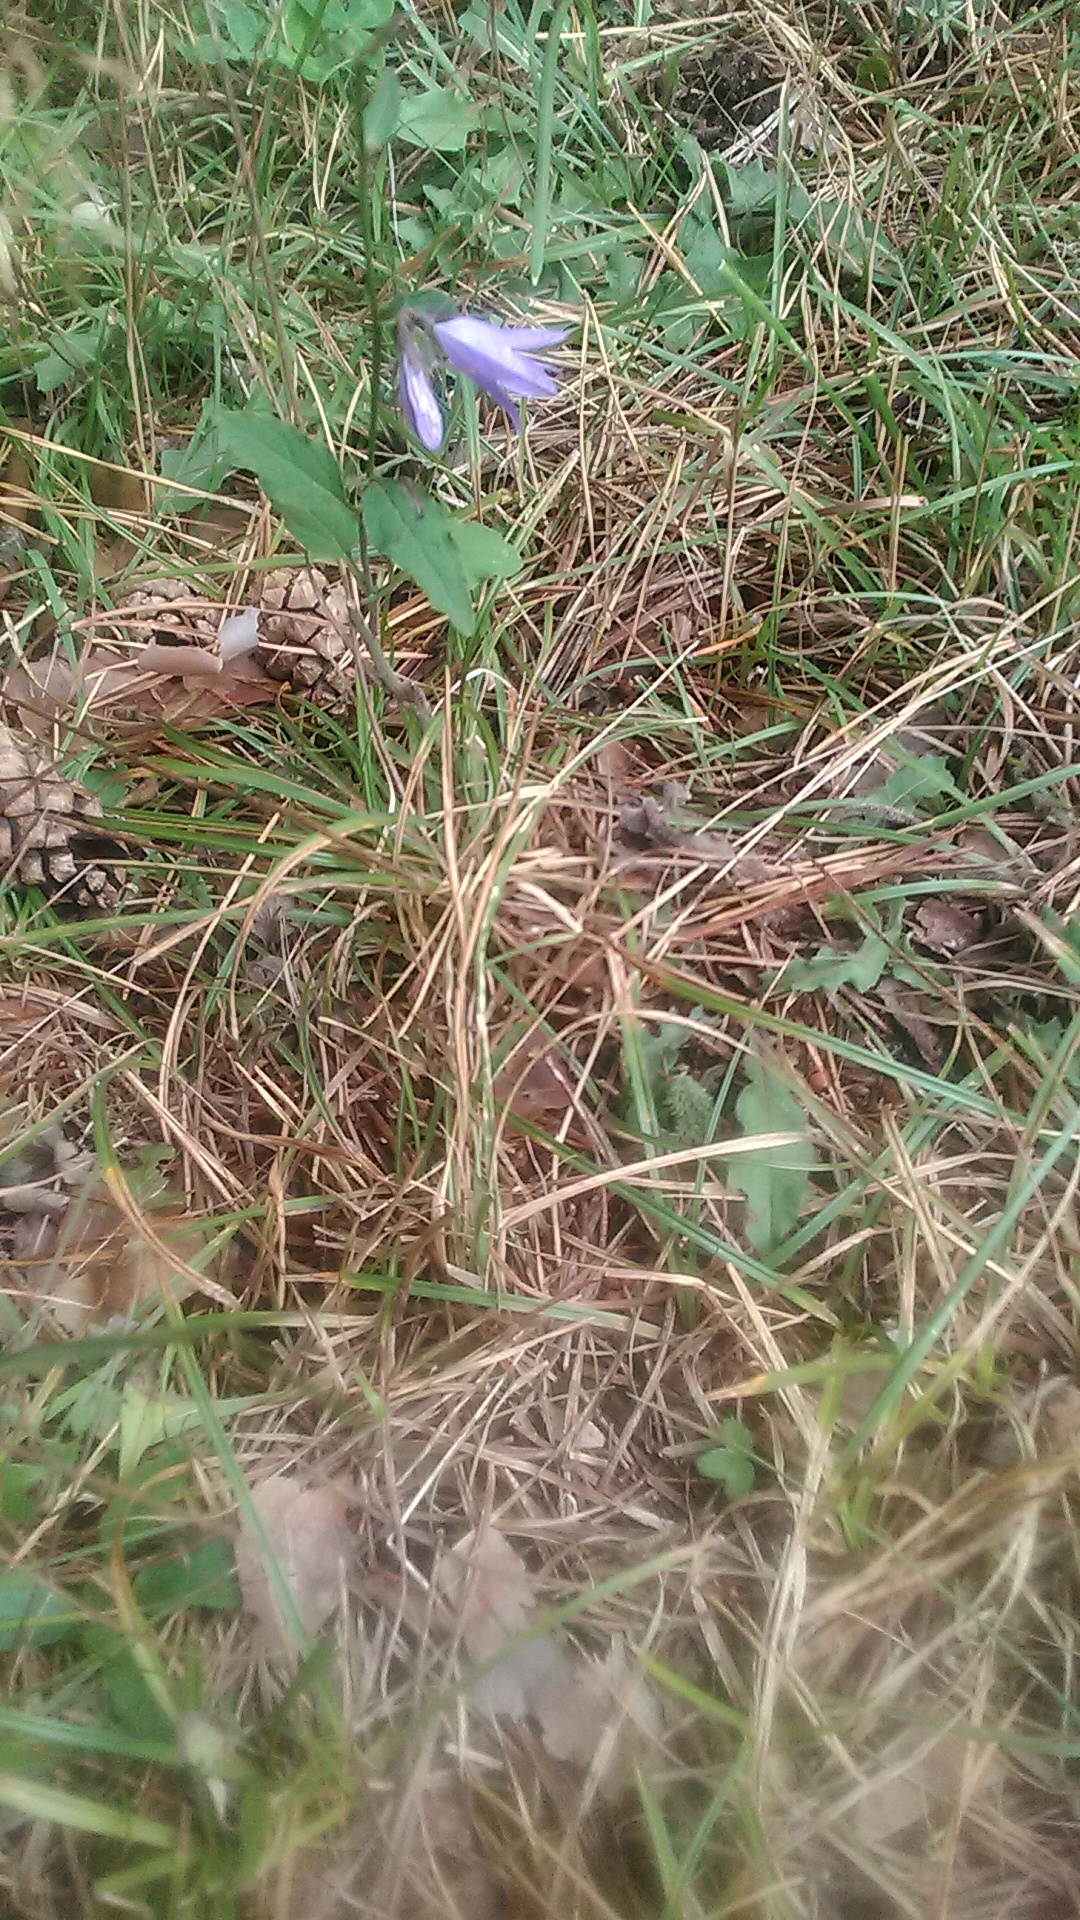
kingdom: Plantae
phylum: Tracheophyta
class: Magnoliopsida
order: Asterales
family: Campanulaceae
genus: Campanula
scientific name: Campanula rapunculoides
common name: Creeping bellflower
